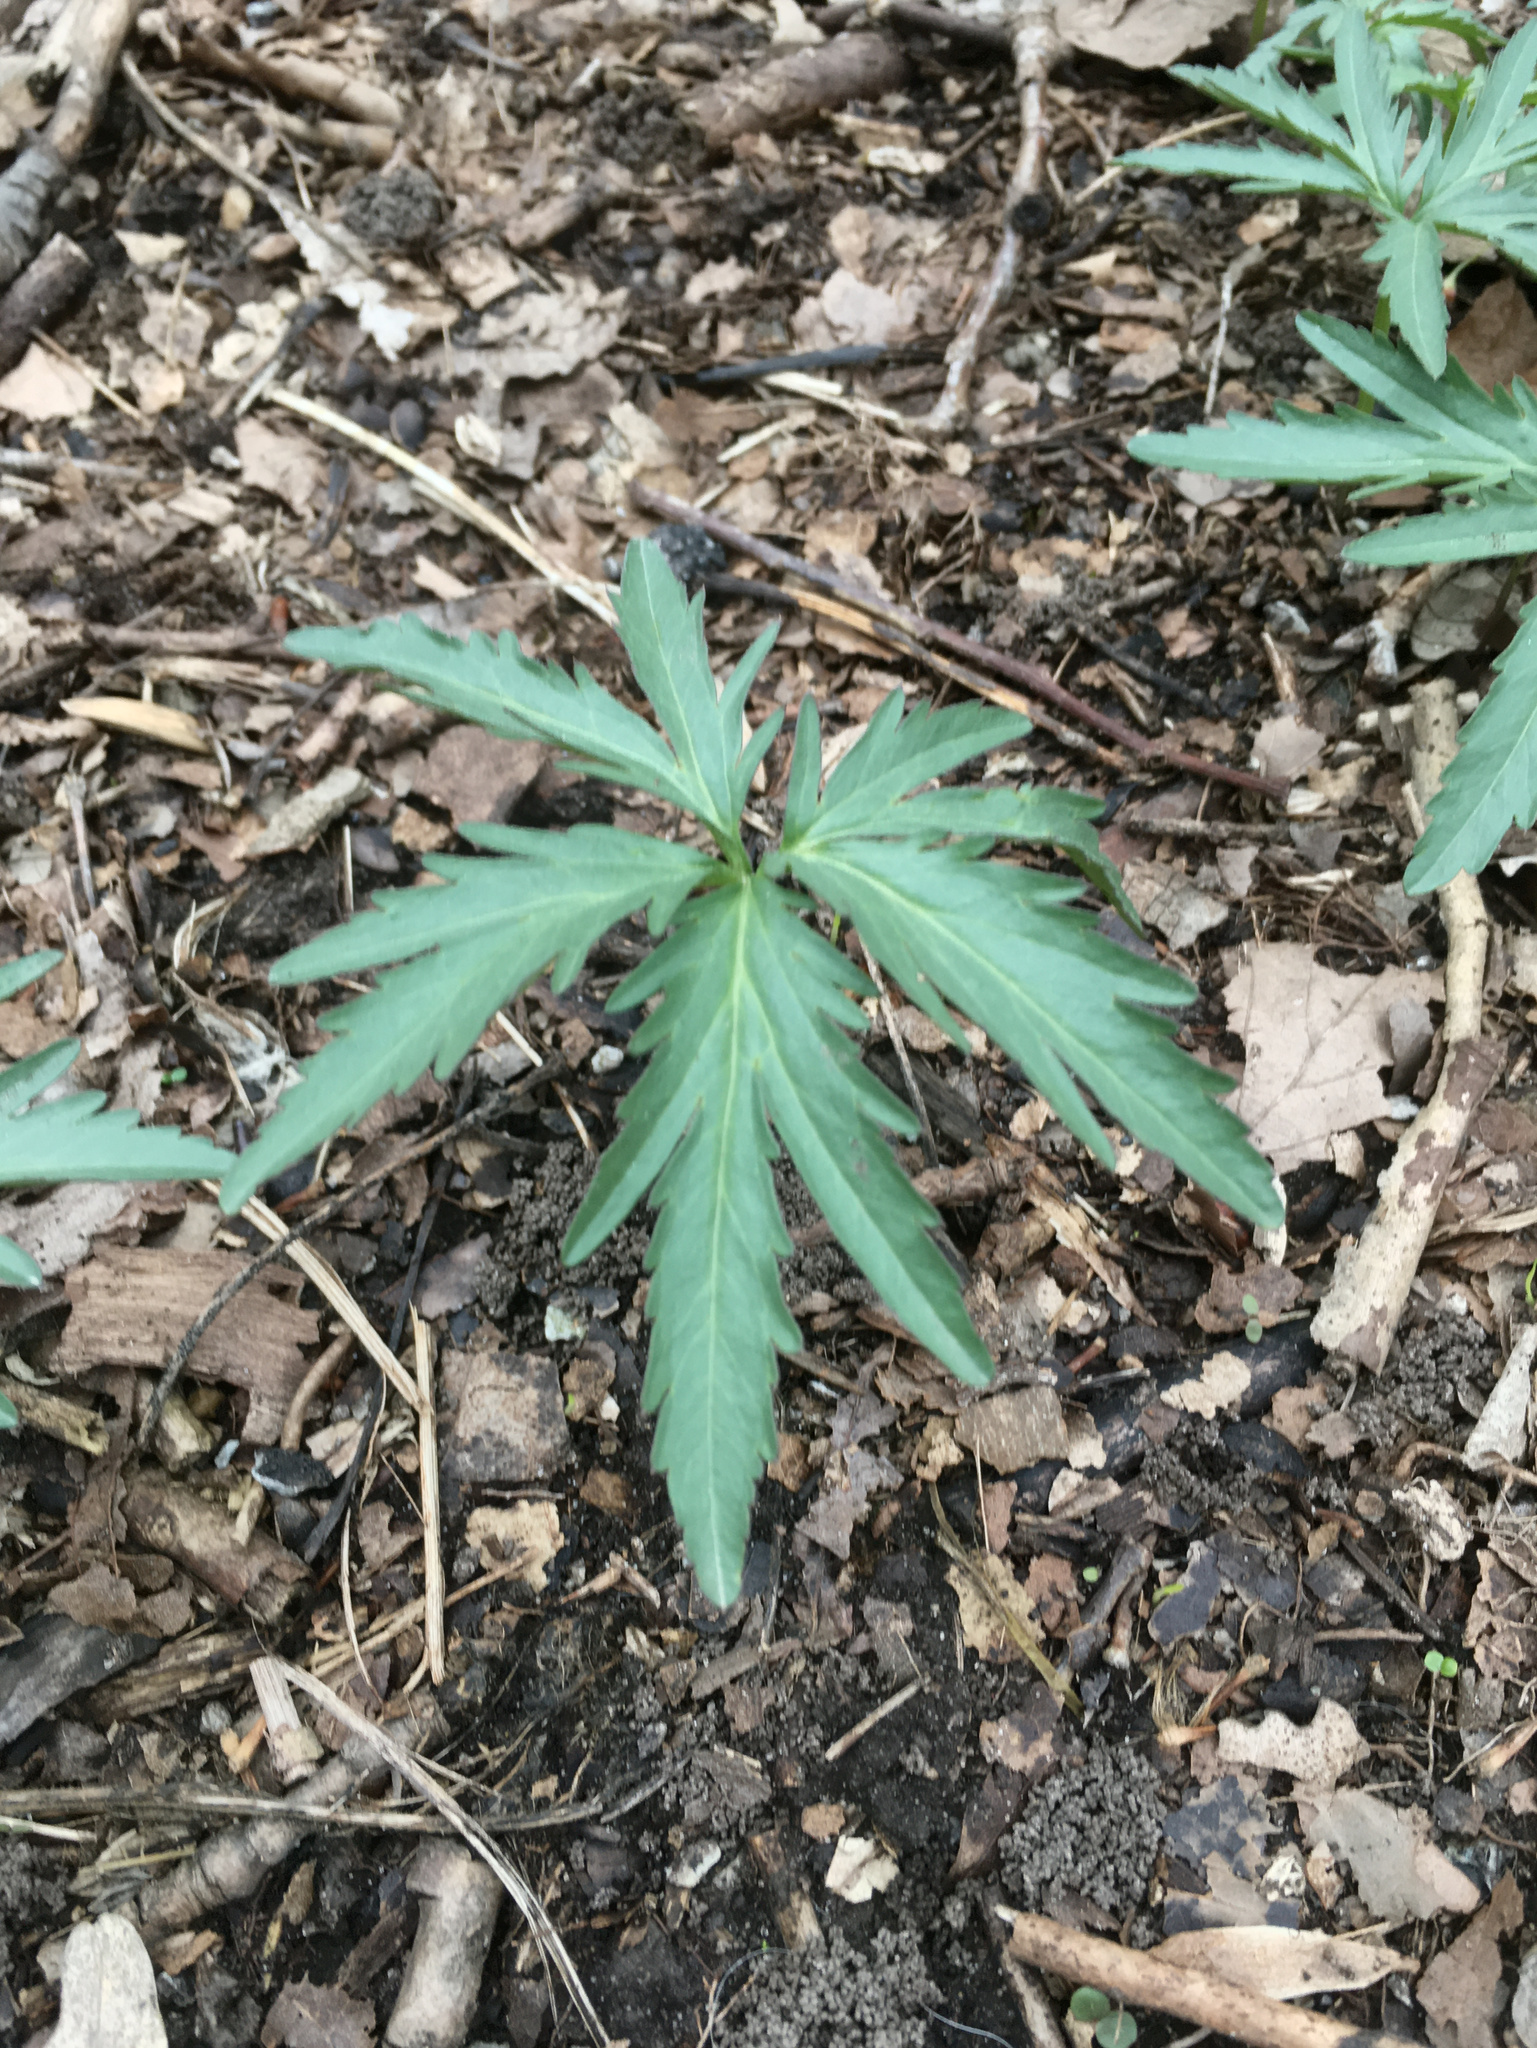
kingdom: Plantae
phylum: Tracheophyta
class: Magnoliopsida
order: Brassicales
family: Brassicaceae
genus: Cardamine
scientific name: Cardamine concatenata
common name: Cut-leaf toothcup
